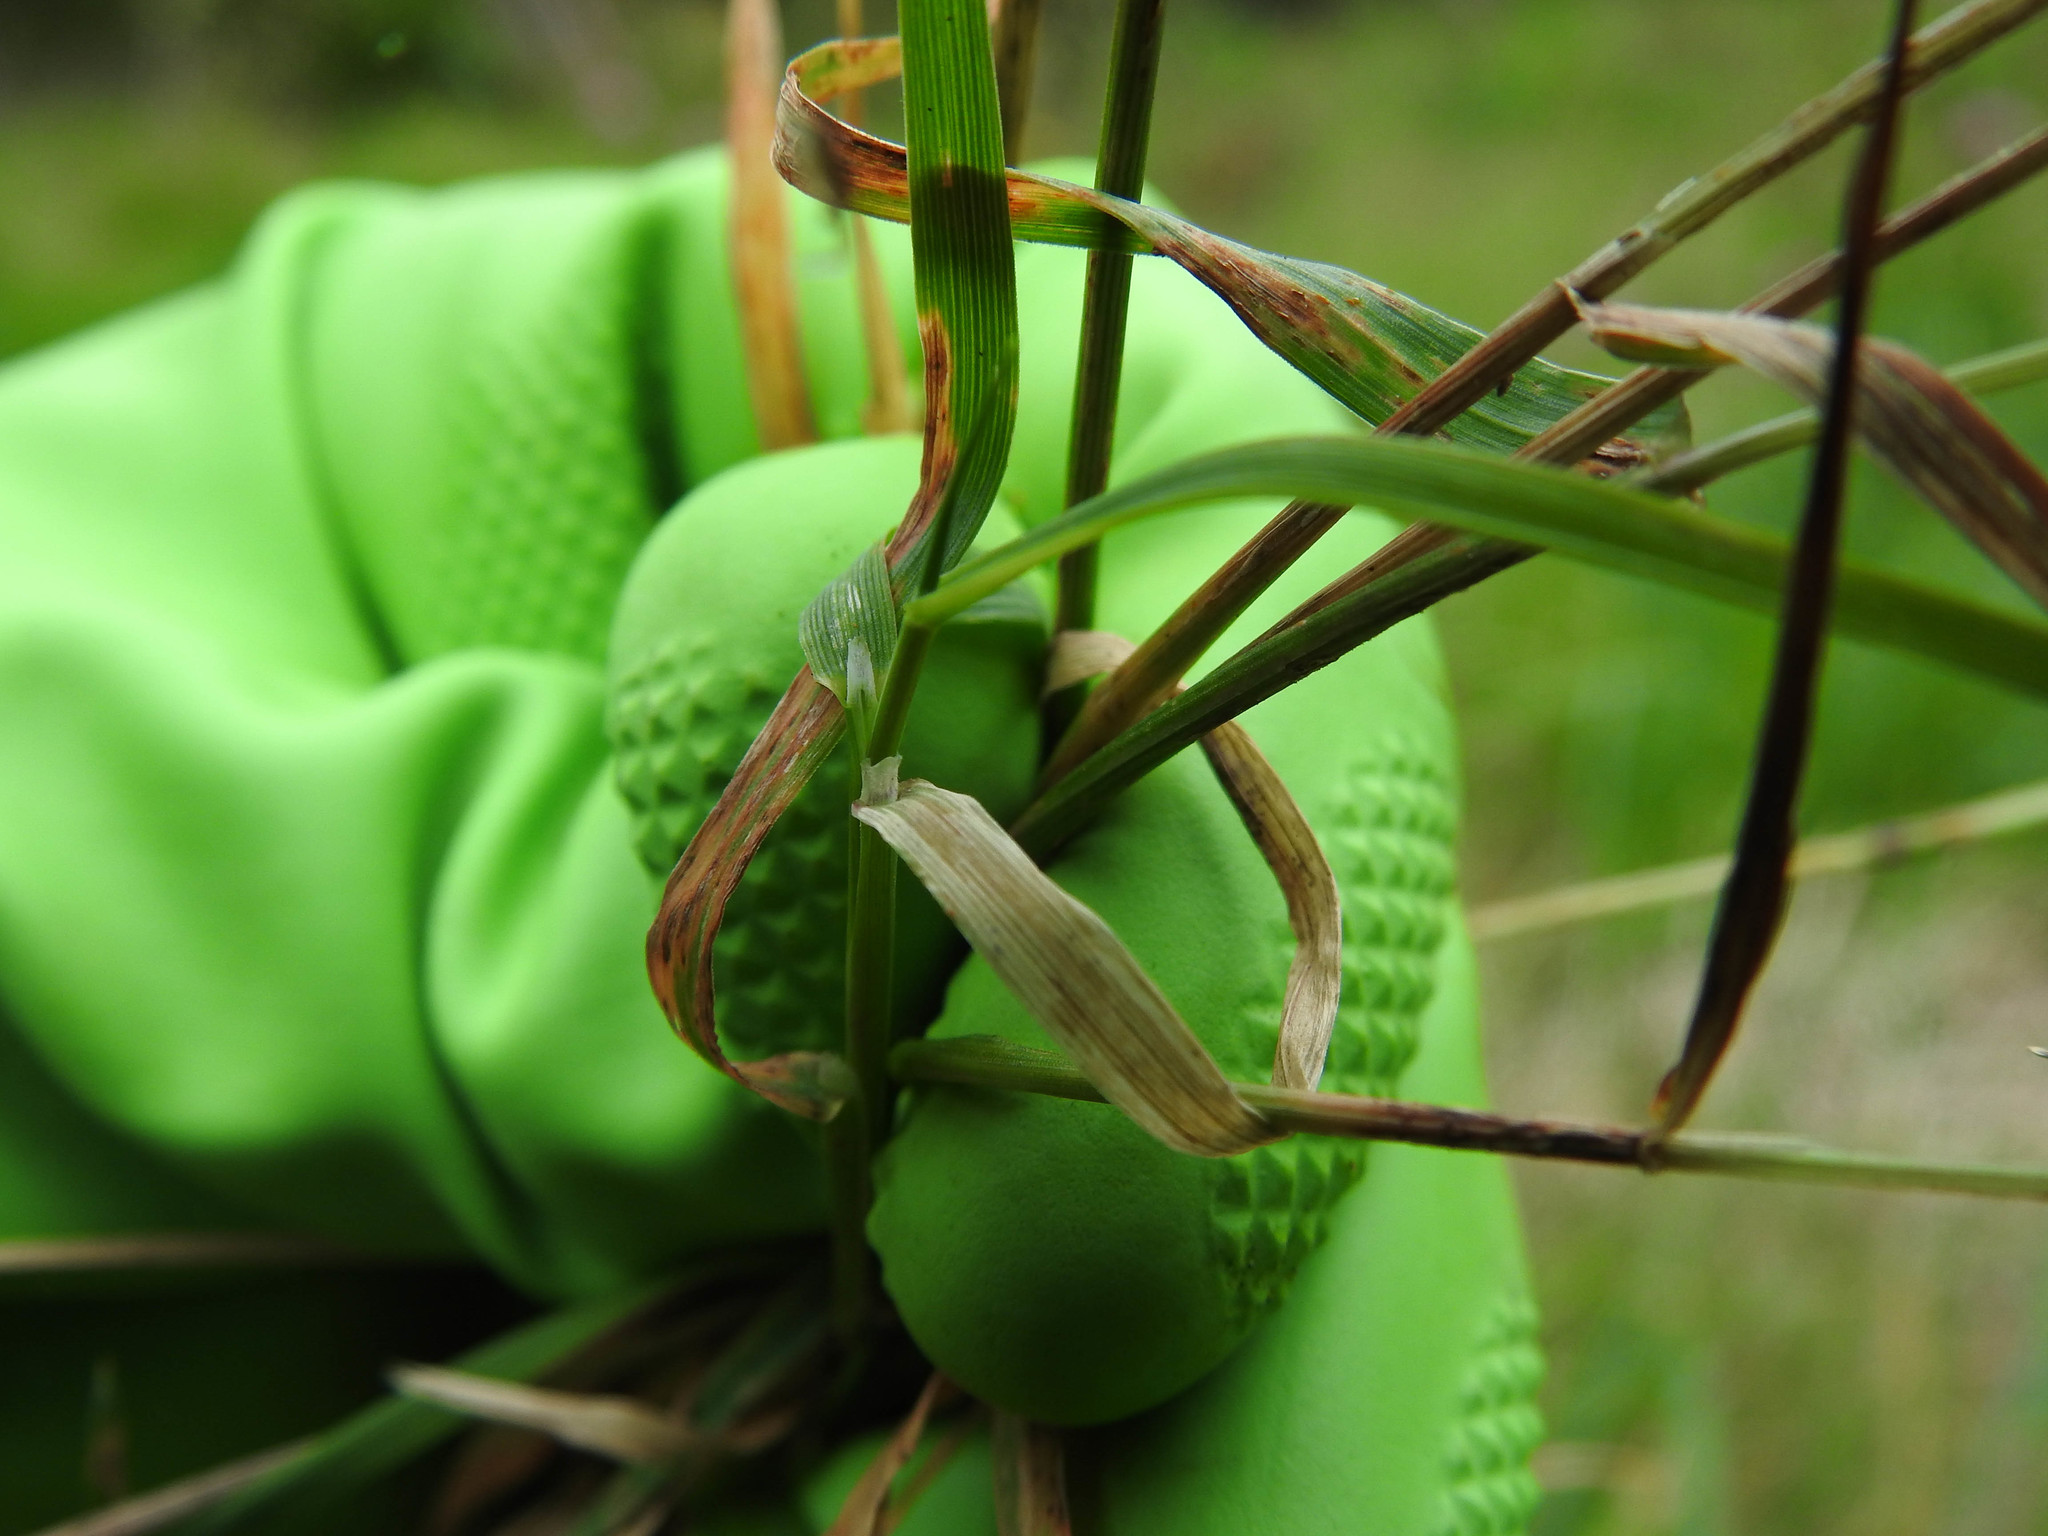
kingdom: Plantae
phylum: Tracheophyta
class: Liliopsida
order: Poales
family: Poaceae
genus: Anthoxanthum
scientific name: Anthoxanthum odoratum
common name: Sweet vernalgrass
